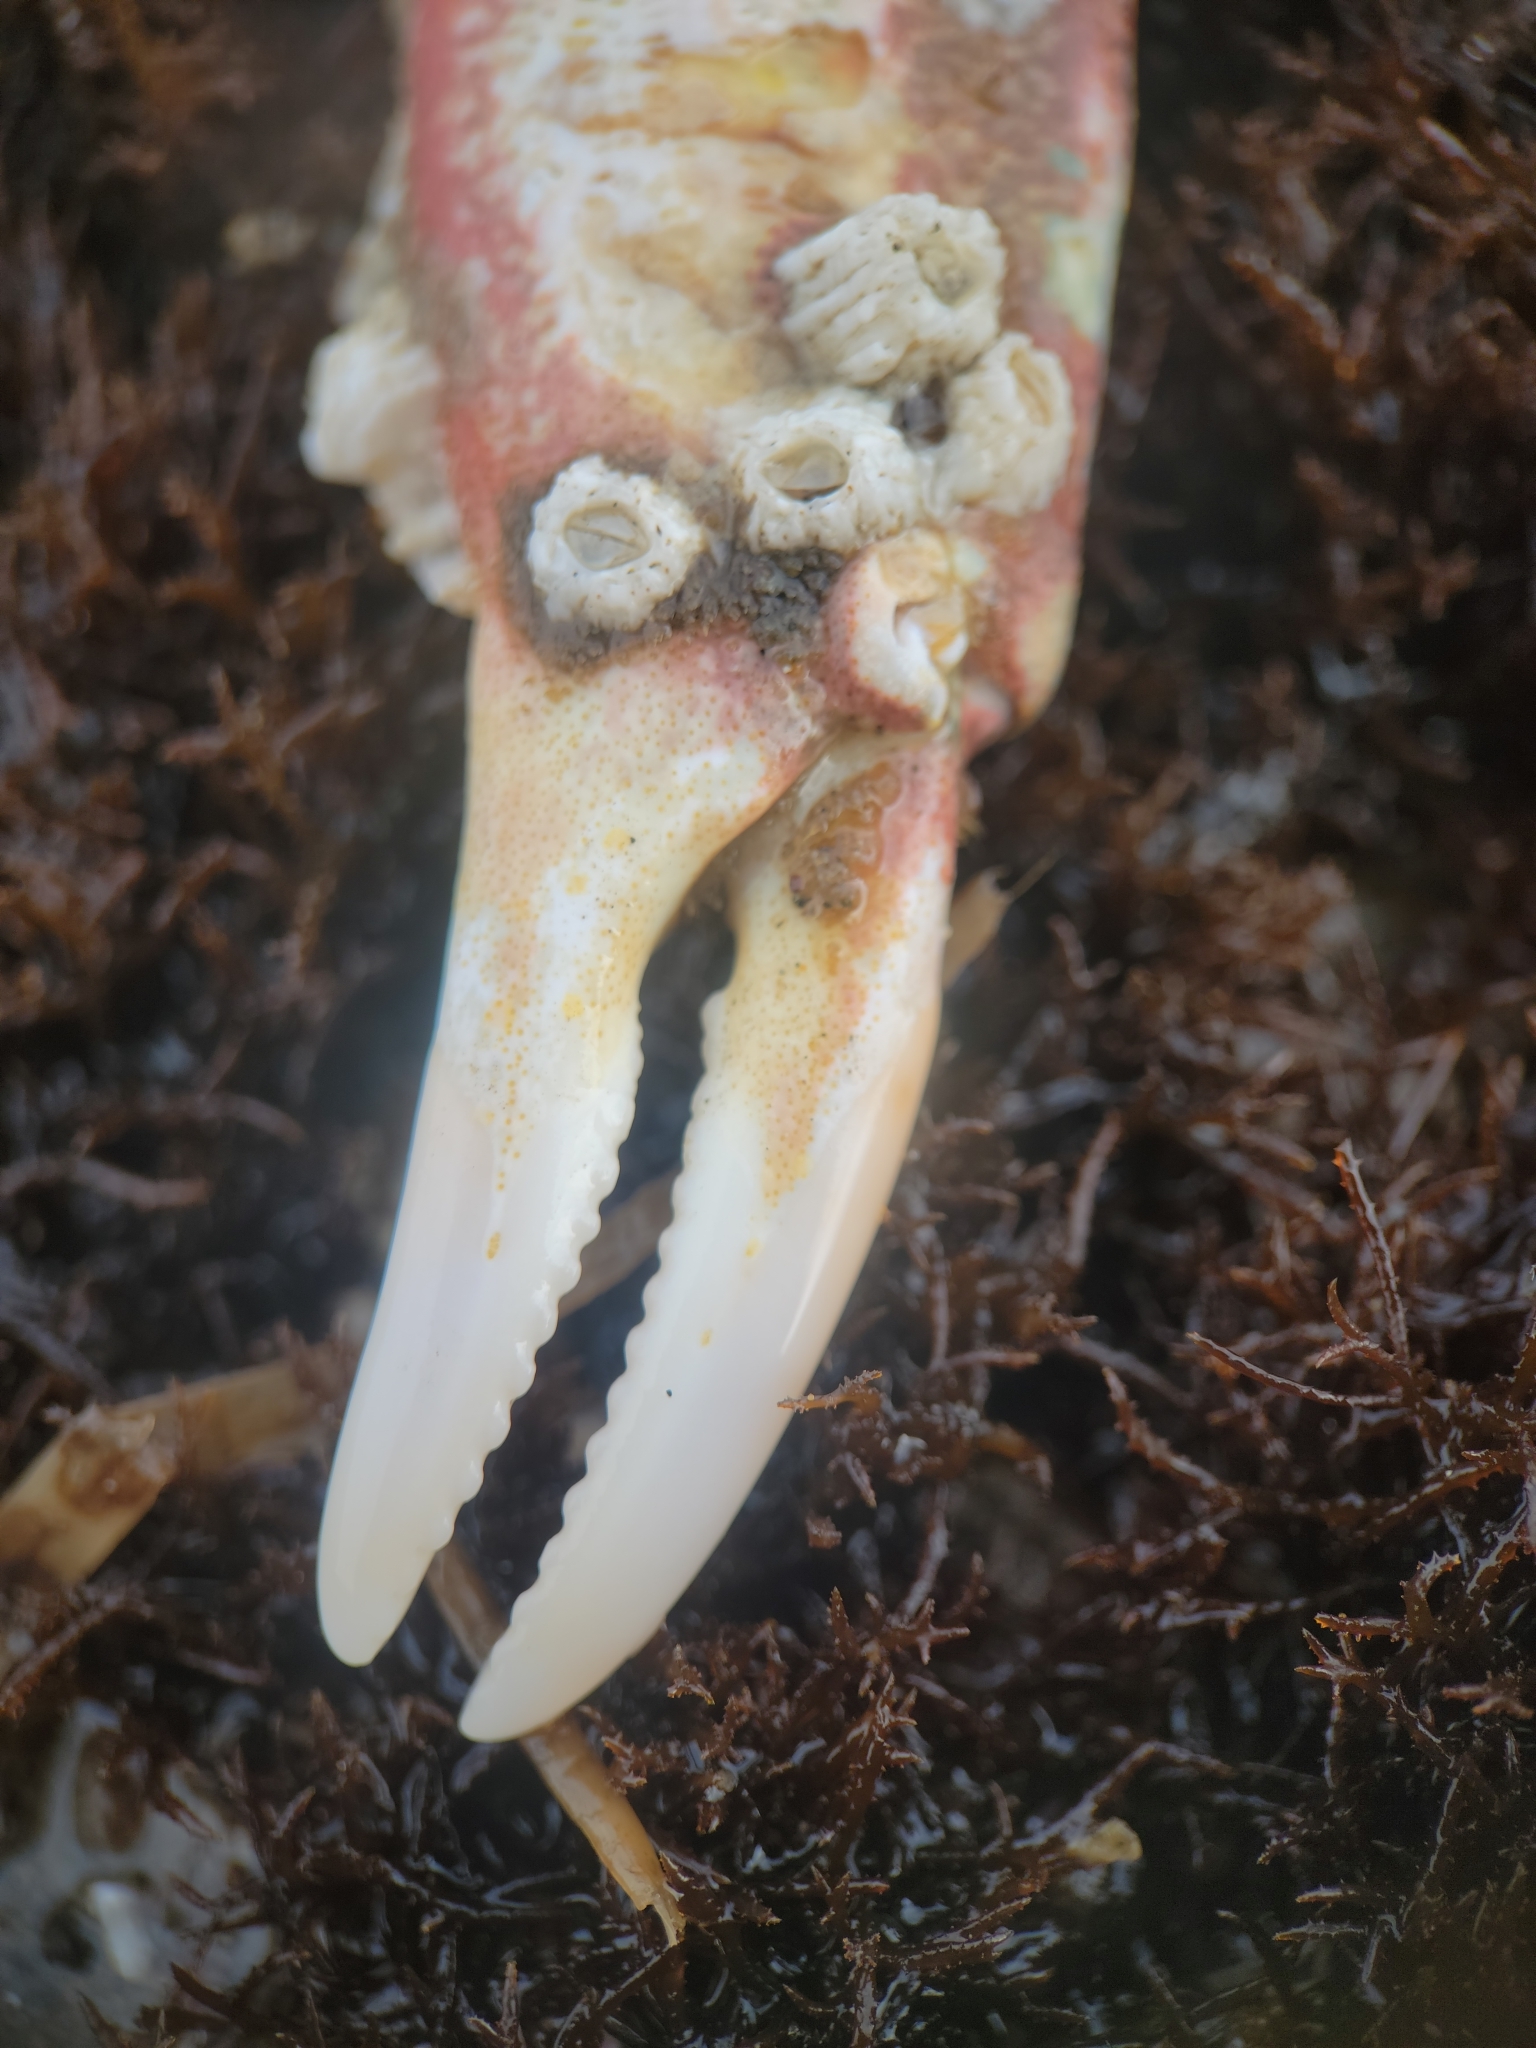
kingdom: Animalia
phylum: Arthropoda
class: Malacostraca
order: Decapoda
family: Epialtidae
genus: Loxorhynchus
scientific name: Loxorhynchus grandis
